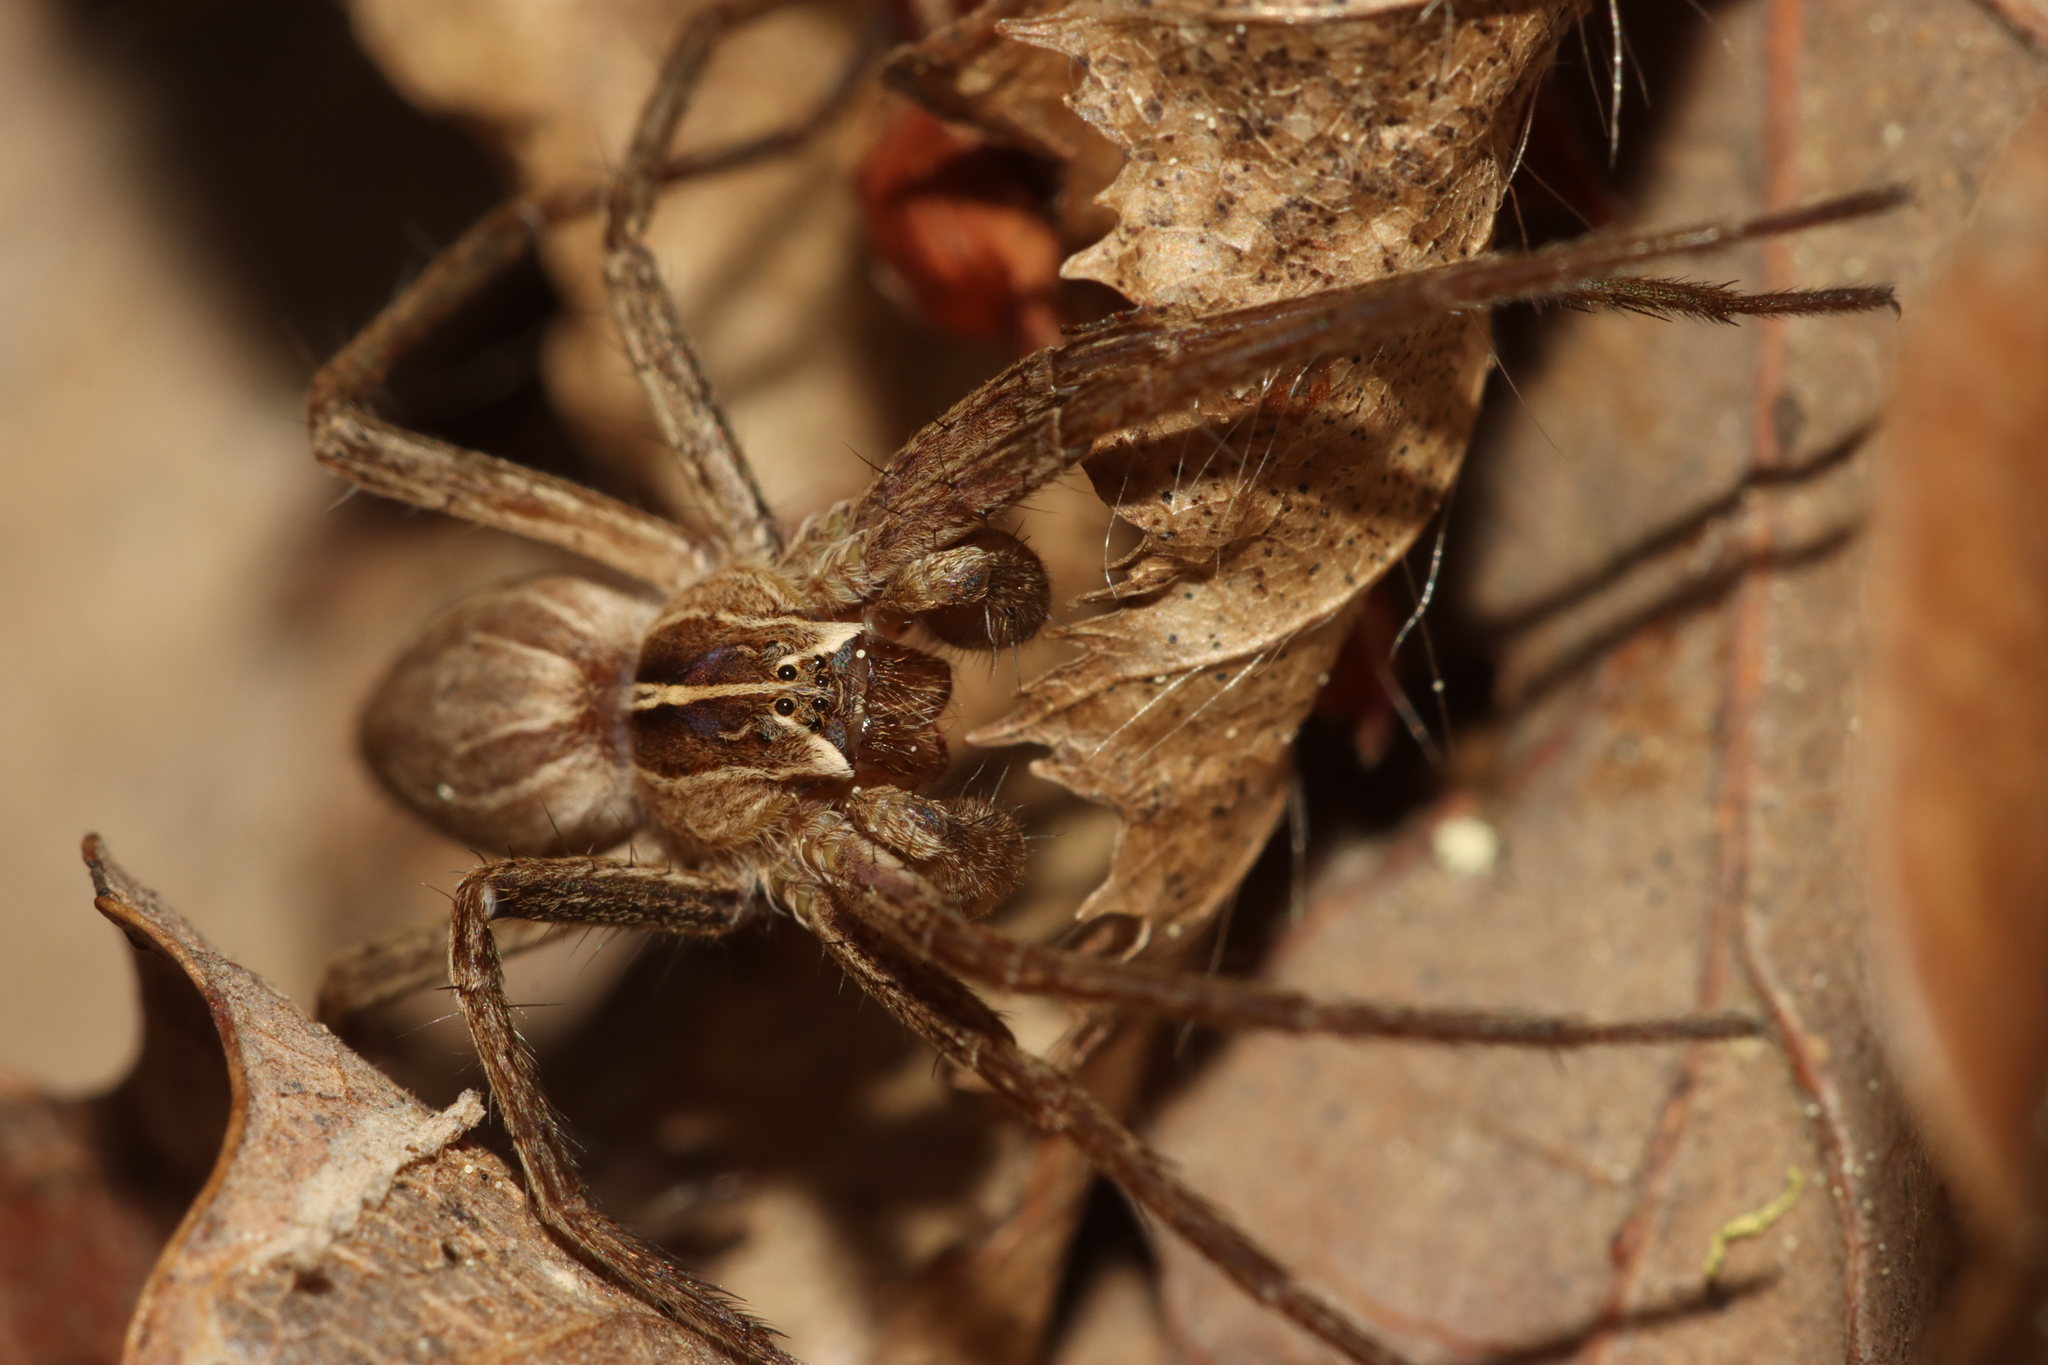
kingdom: Animalia
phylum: Arthropoda
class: Arachnida
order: Araneae
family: Pisauridae
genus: Pisaura
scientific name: Pisaura mirabilis
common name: Tent spider
